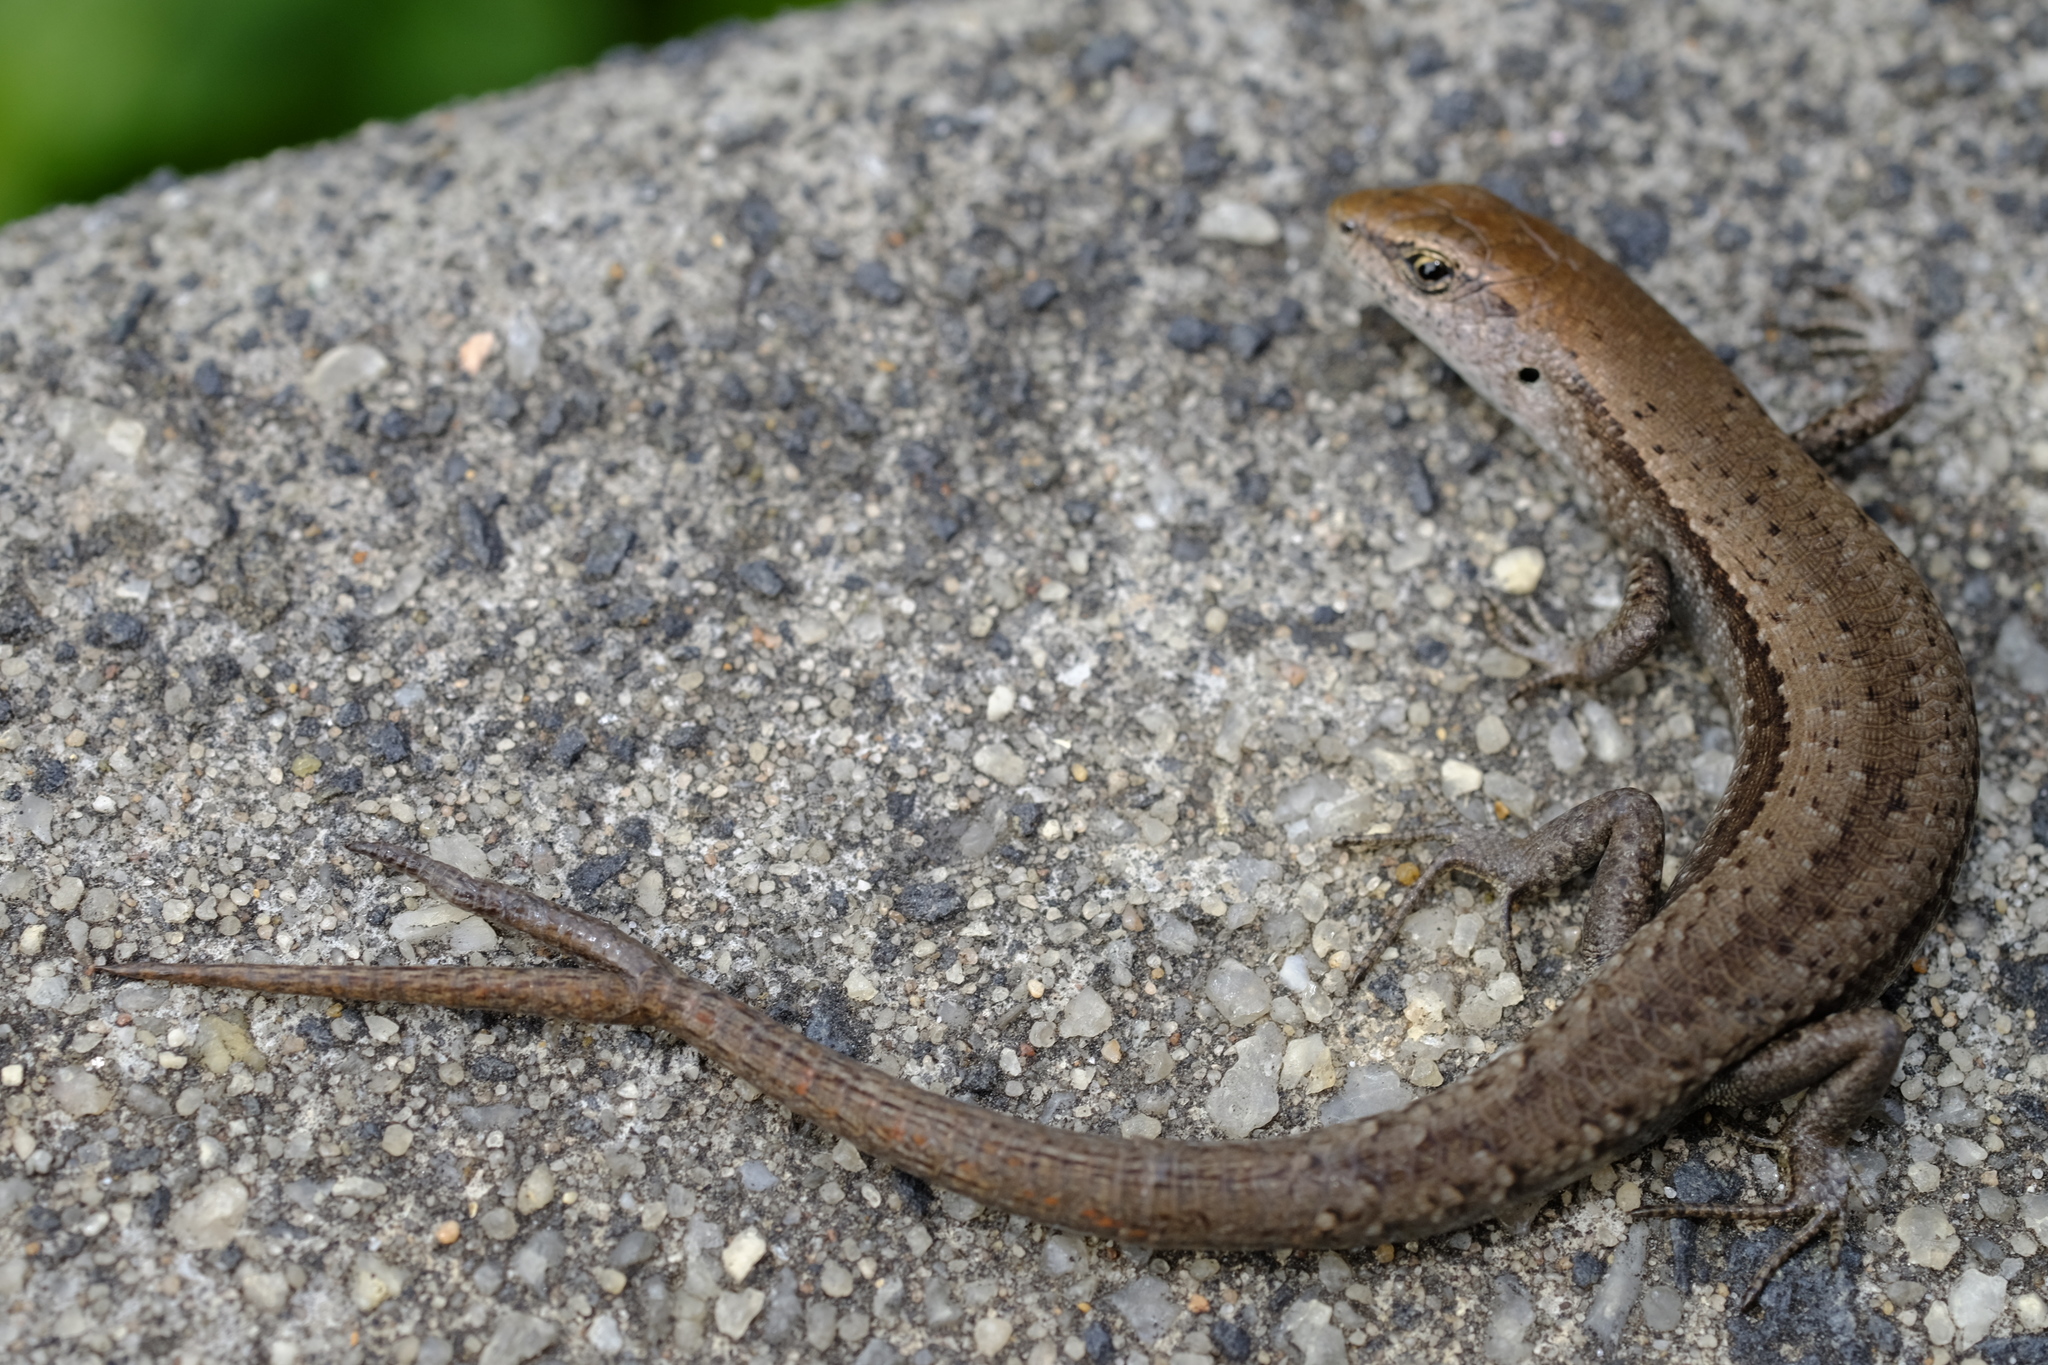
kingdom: Animalia
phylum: Chordata
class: Squamata
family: Scincidae
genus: Lampropholis
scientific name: Lampropholis guichenoti
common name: Garden skink
